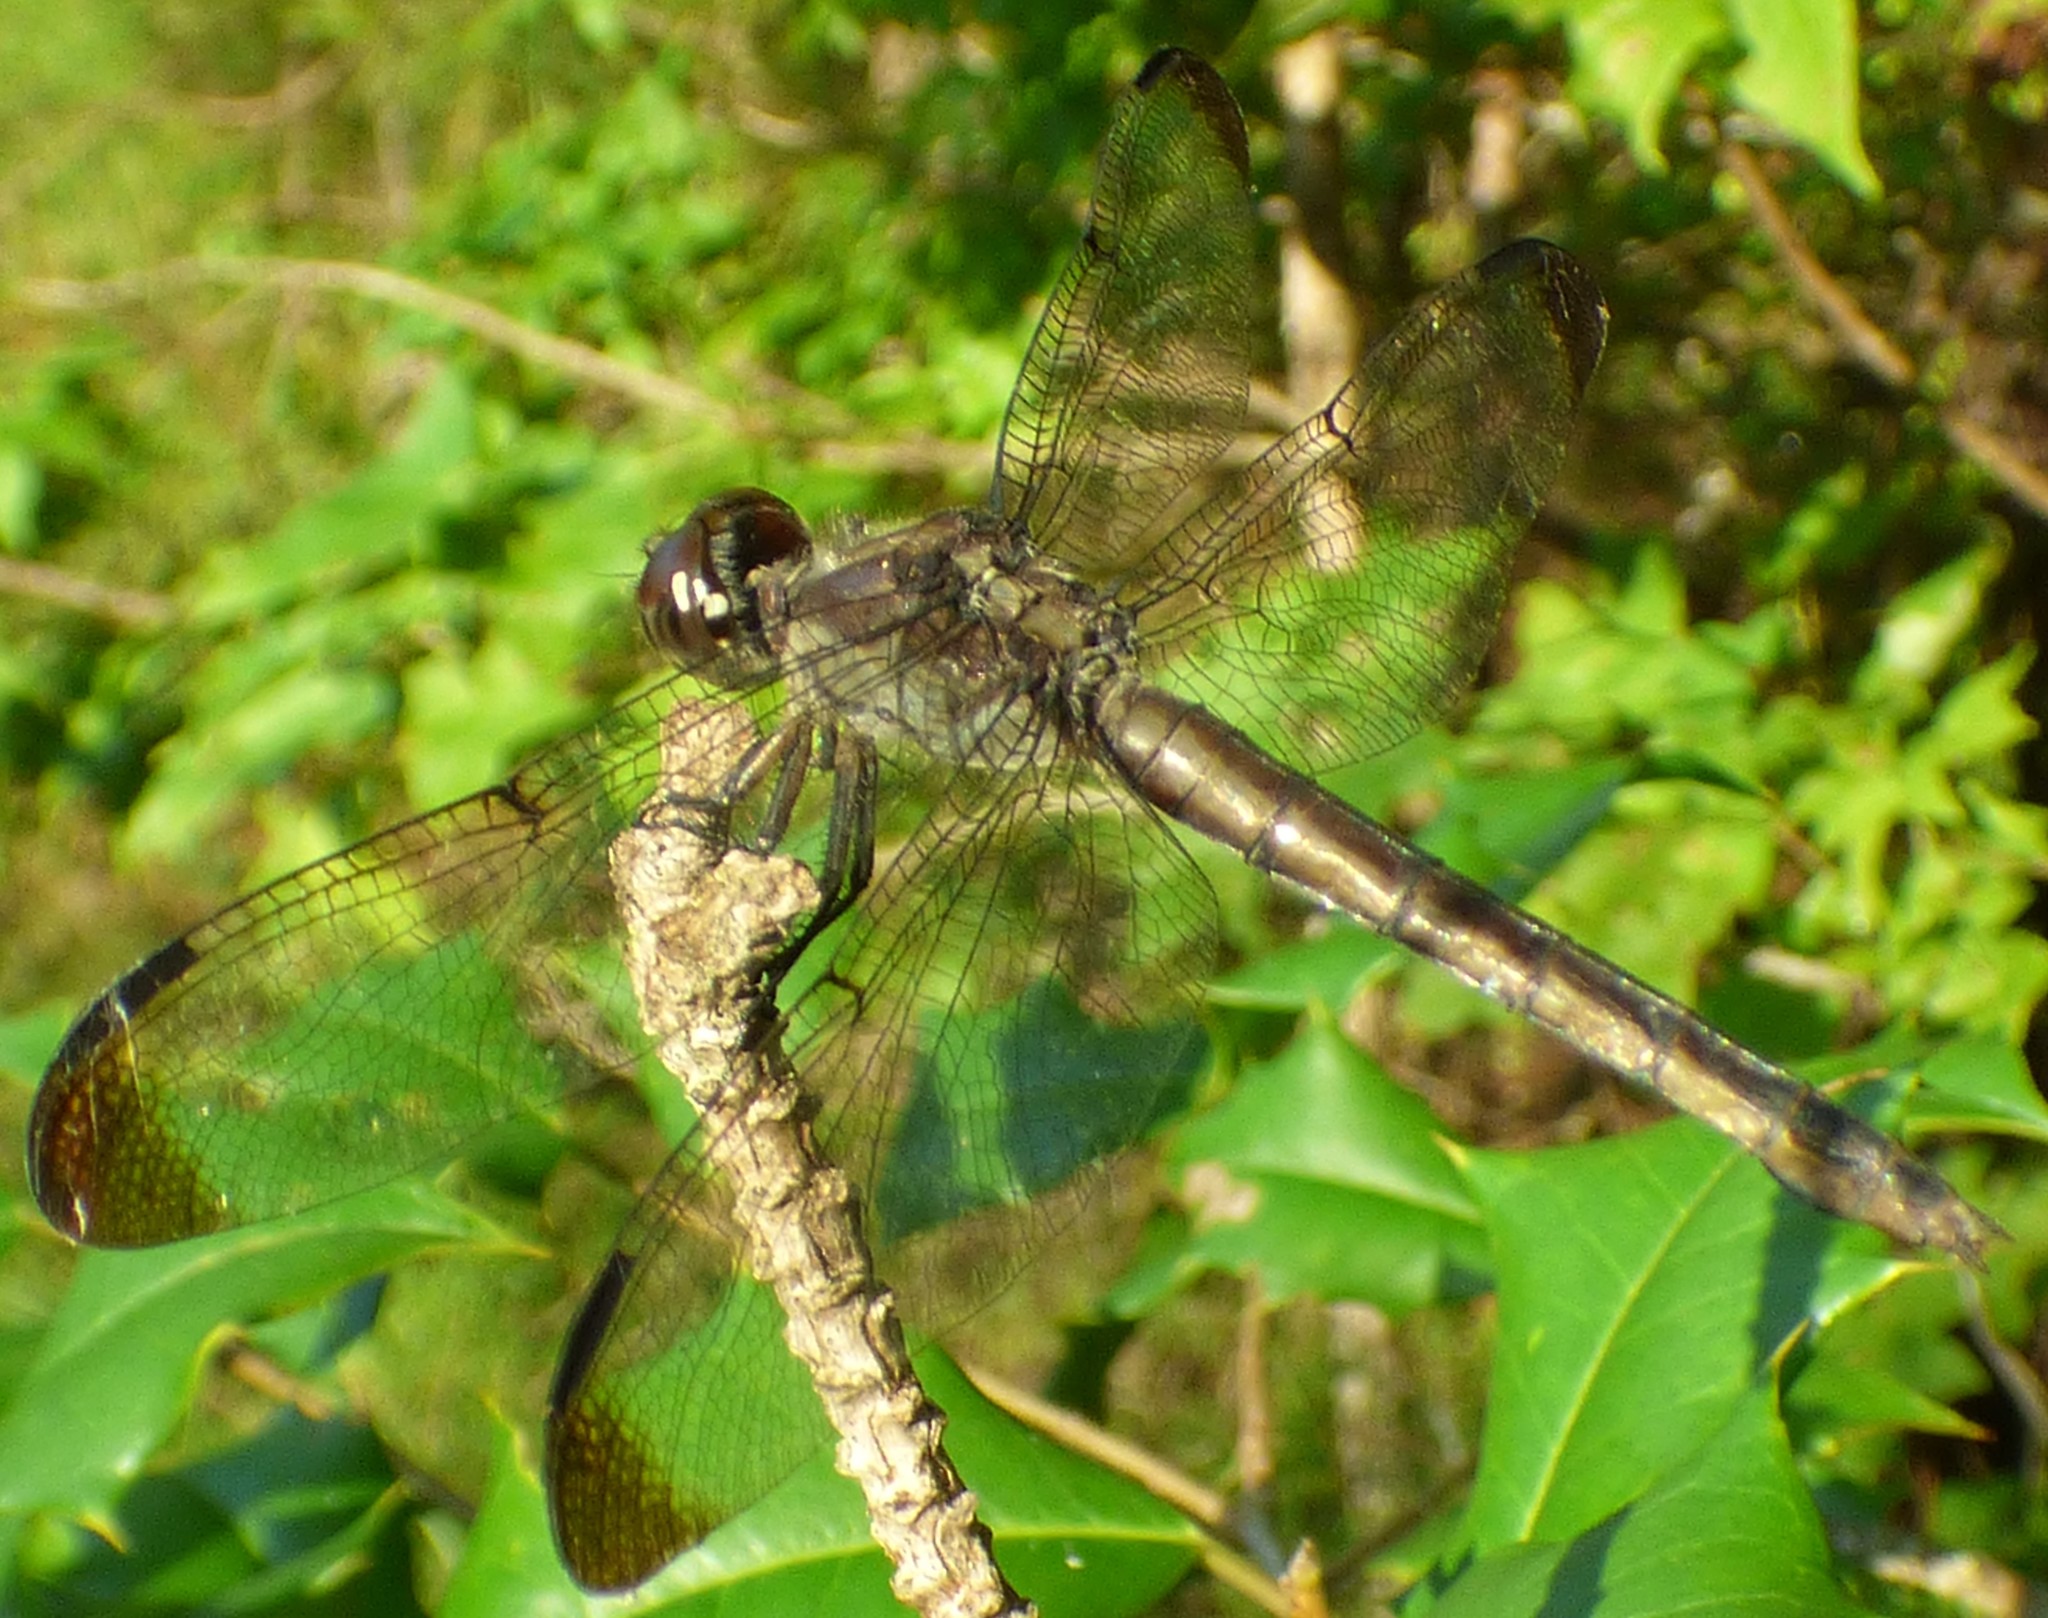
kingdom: Animalia
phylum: Arthropoda
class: Insecta
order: Odonata
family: Libellulidae
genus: Libellula
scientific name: Libellula incesta
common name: Slaty skimmer
